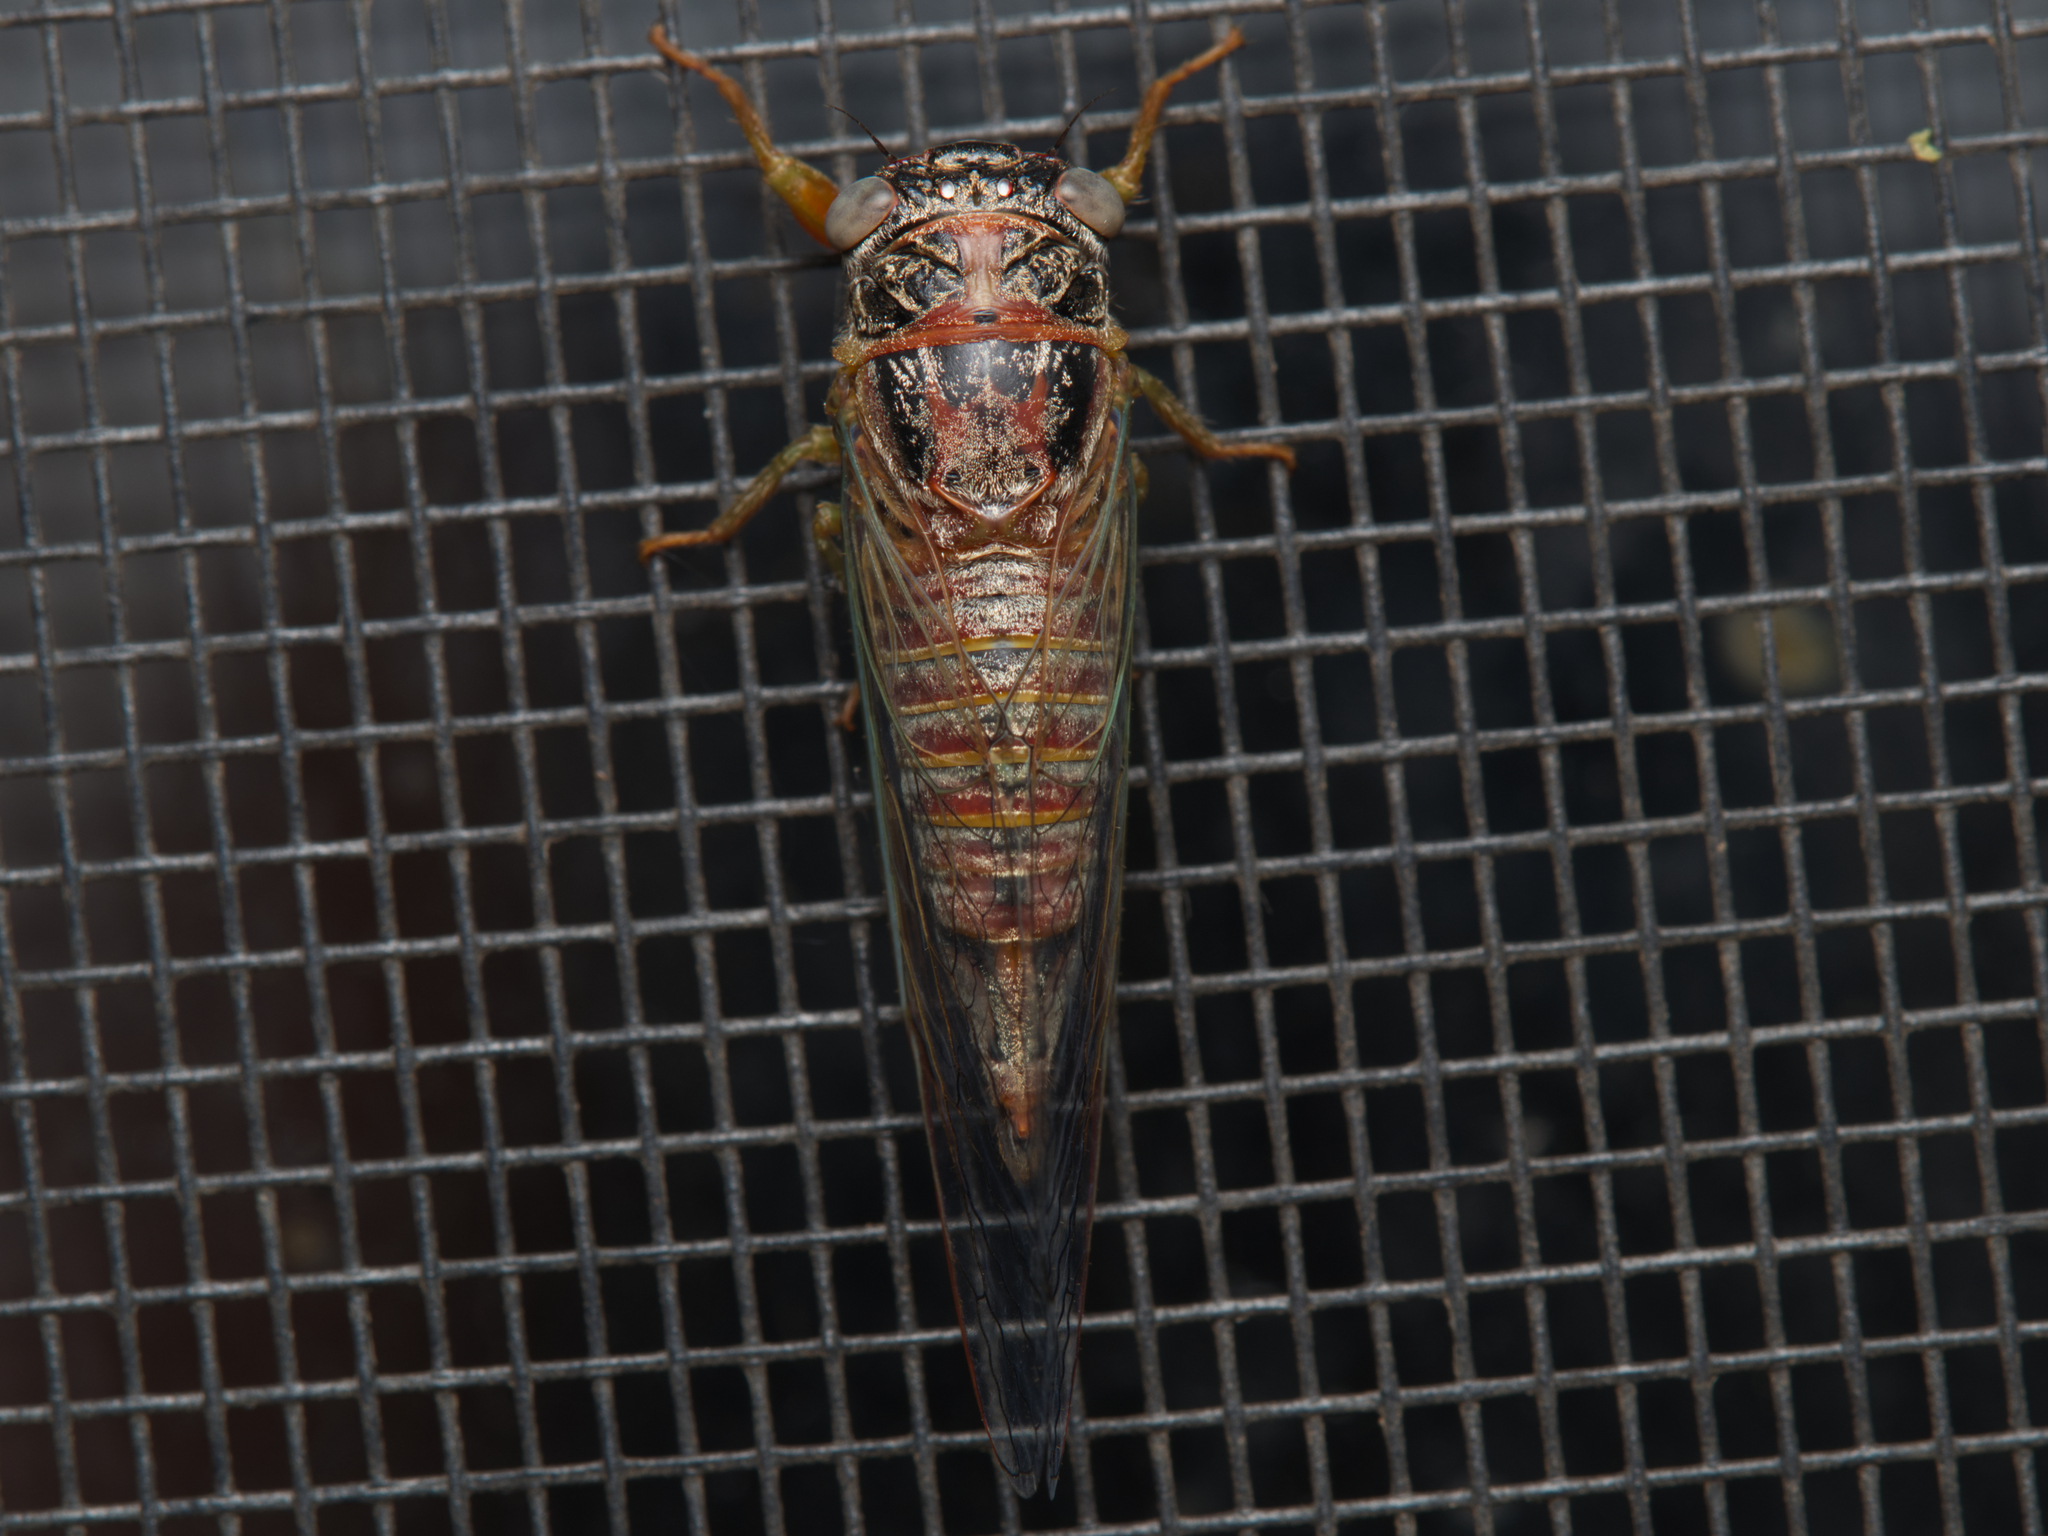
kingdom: Animalia
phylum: Arthropoda
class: Insecta
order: Hemiptera
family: Cicadidae
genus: Haemopsalta
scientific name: Haemopsalta rubea
